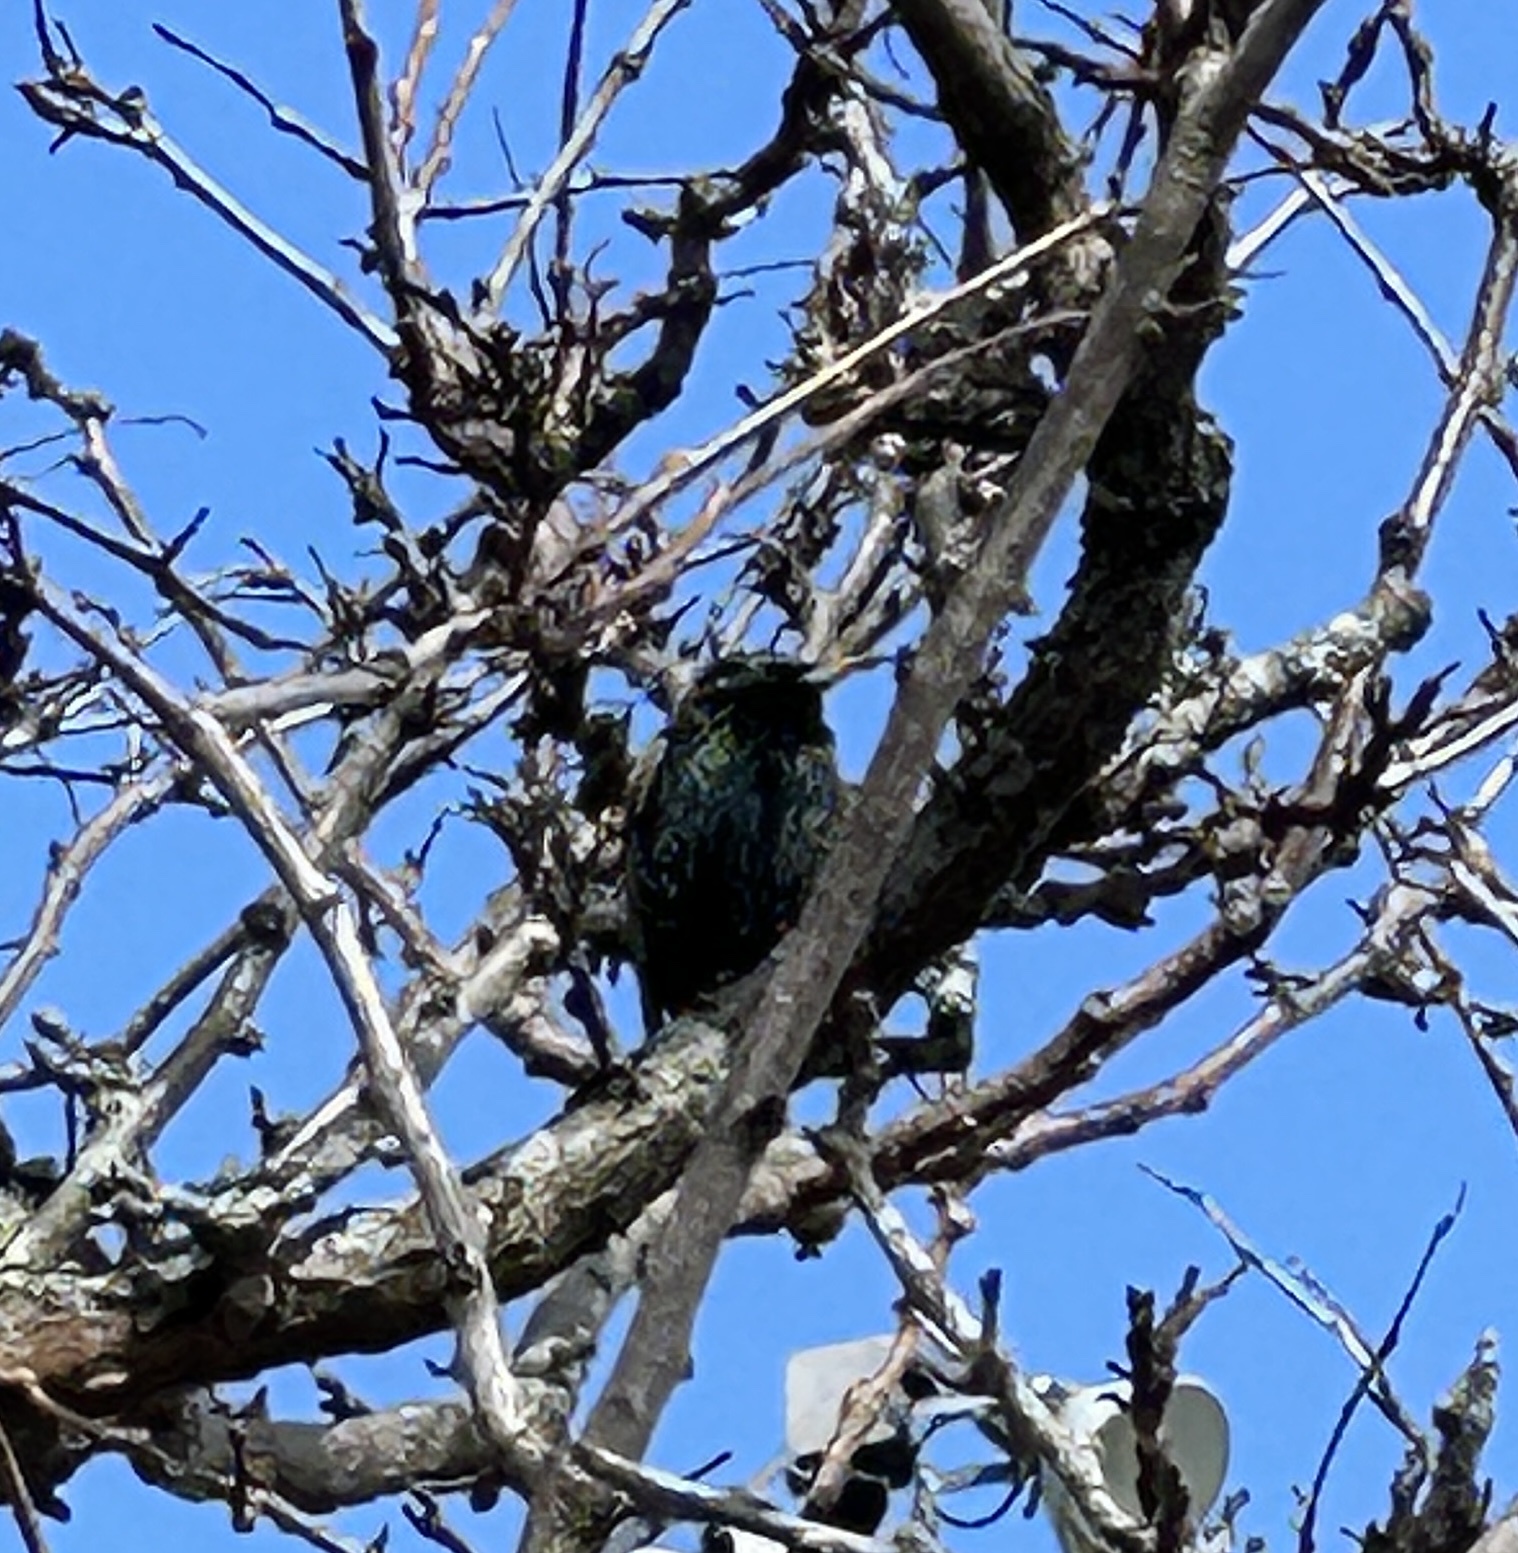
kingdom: Animalia
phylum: Chordata
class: Aves
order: Passeriformes
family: Sturnidae
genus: Sturnus
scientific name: Sturnus vulgaris
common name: Common starling
